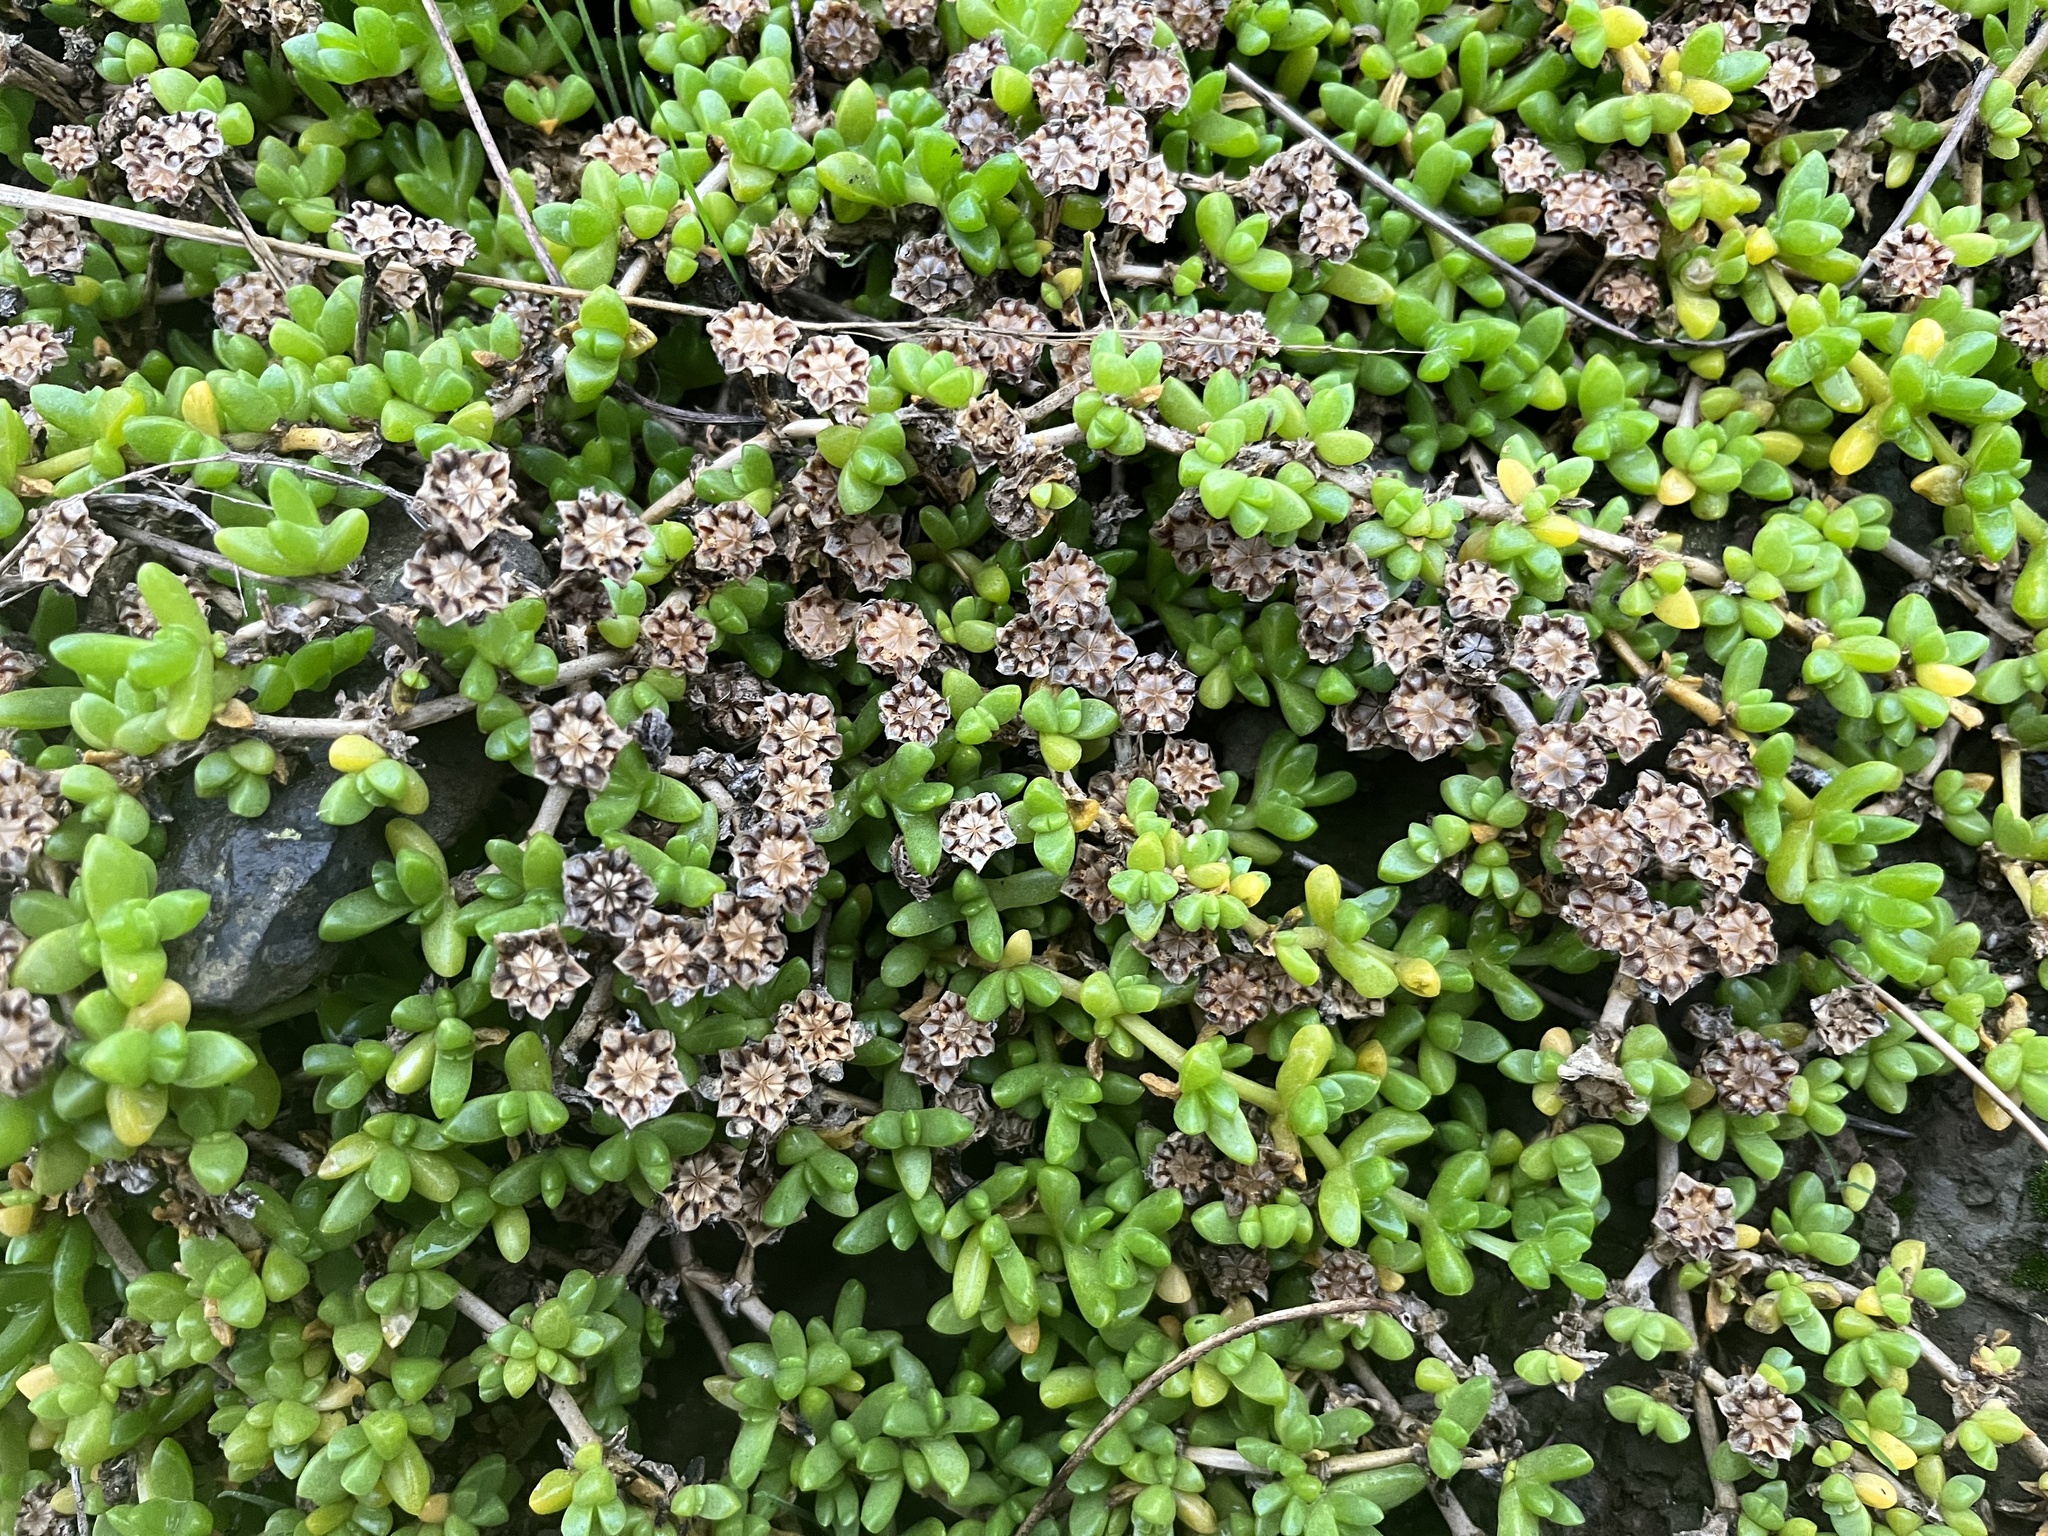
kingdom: Plantae
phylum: Tracheophyta
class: Magnoliopsida
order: Caryophyllales
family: Aizoaceae
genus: Disphyma
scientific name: Disphyma papillatum
